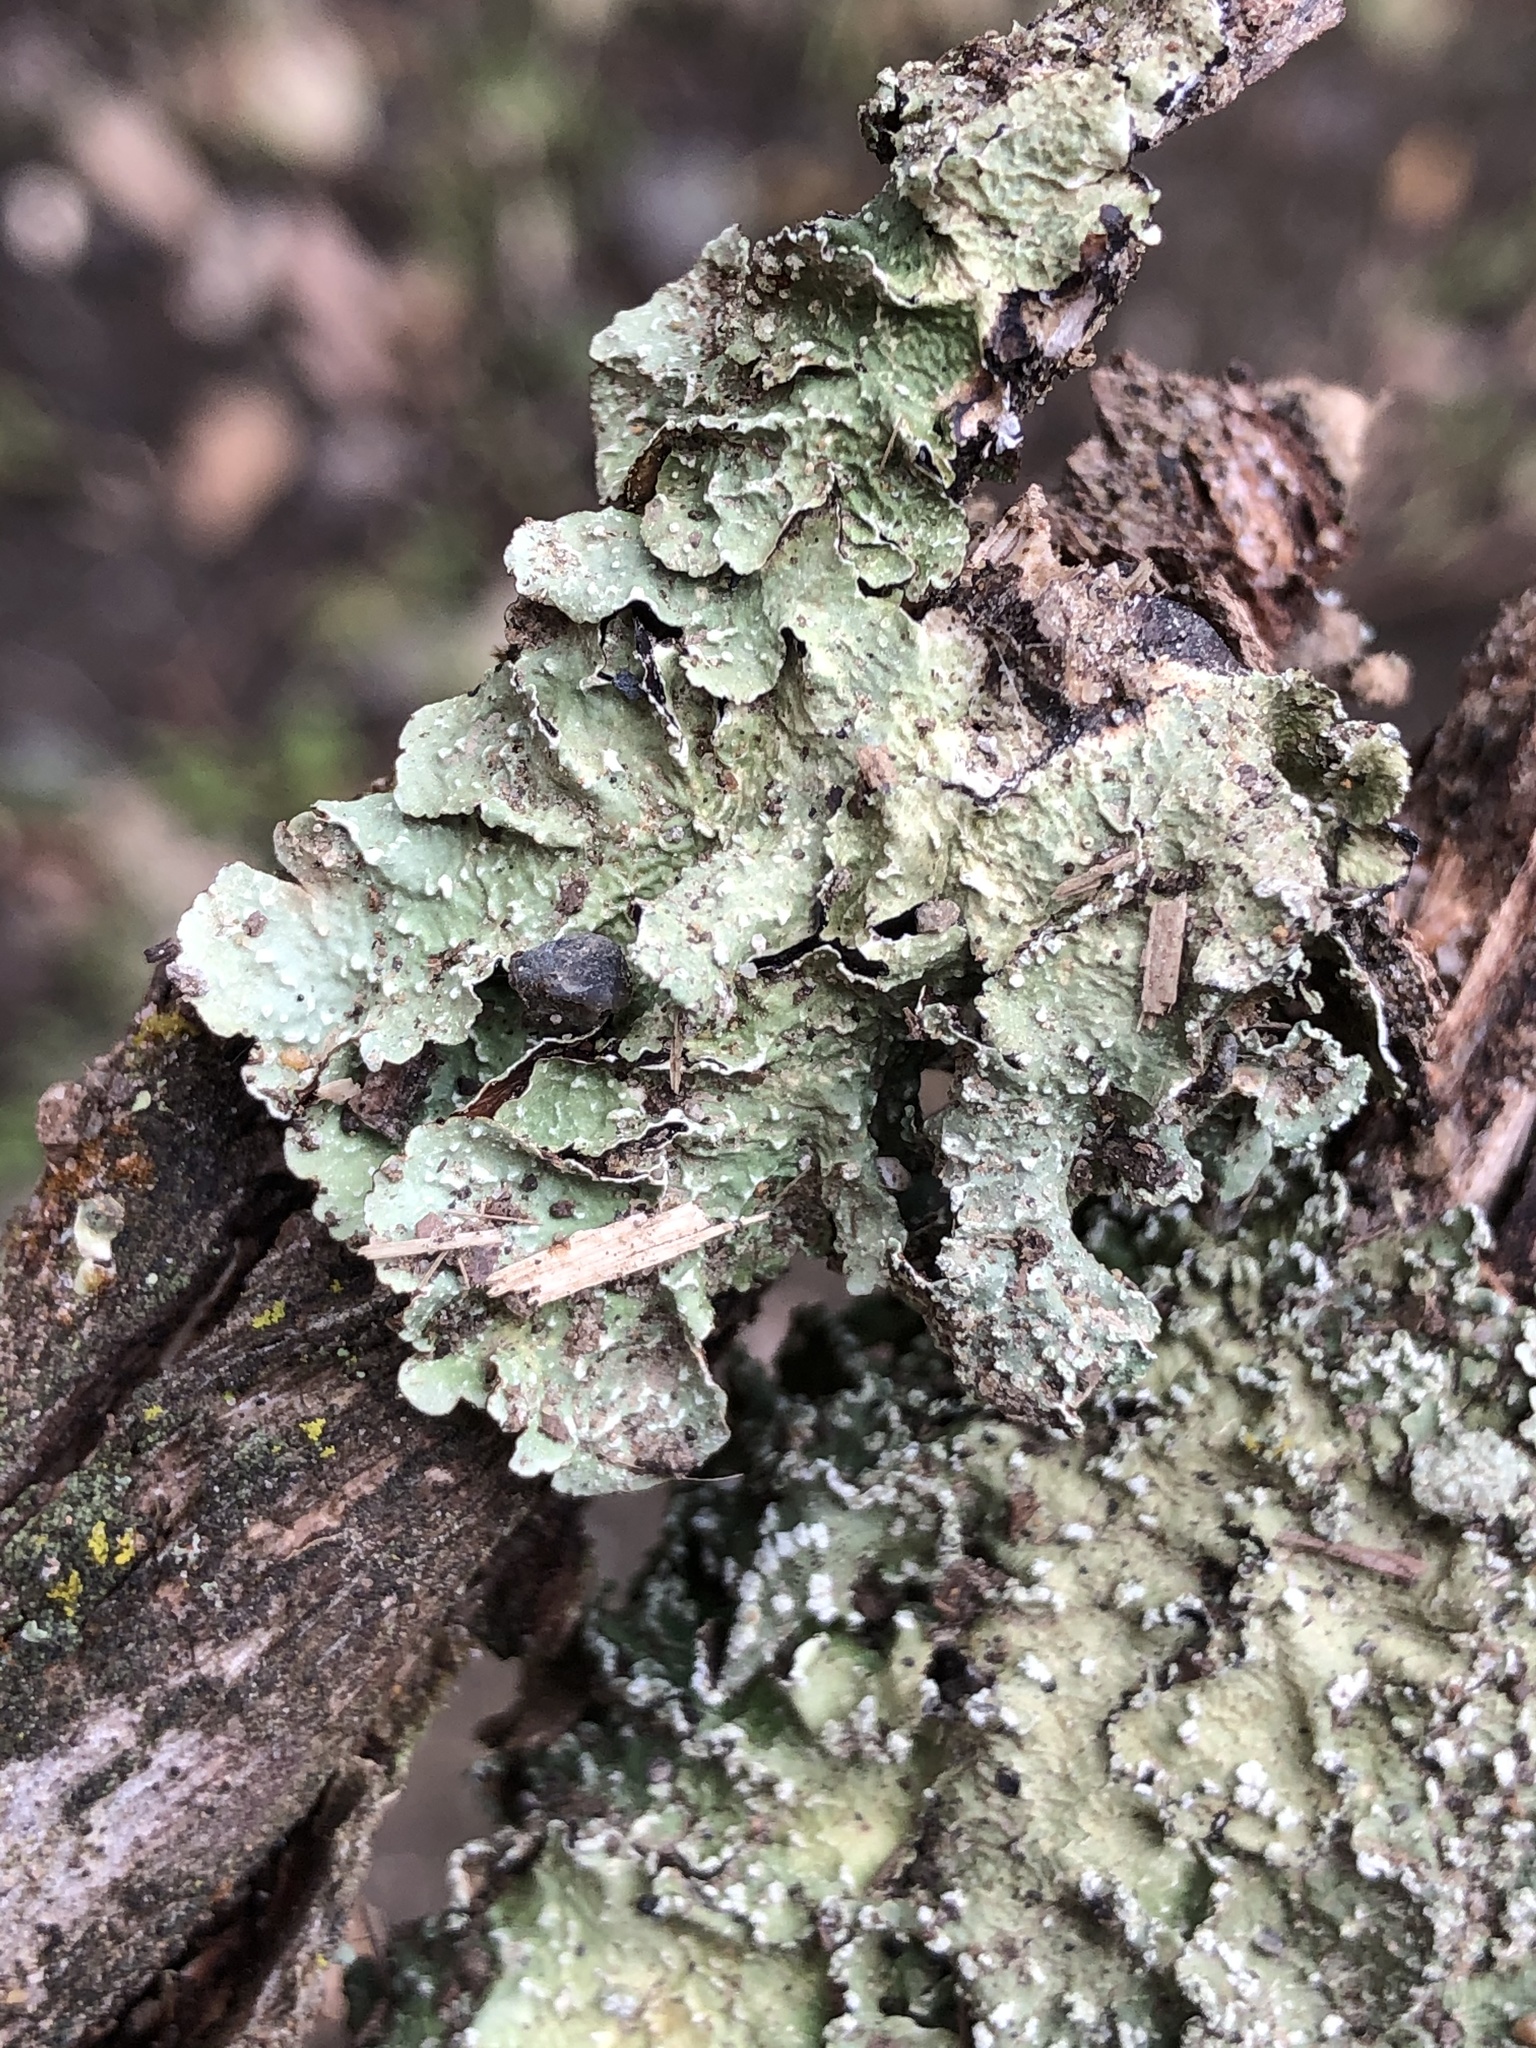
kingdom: Fungi
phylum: Ascomycota
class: Lecanoromycetes
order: Lecanorales
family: Parmeliaceae
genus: Flavopunctelia
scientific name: Flavopunctelia flaventior
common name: Speckled greenshield
